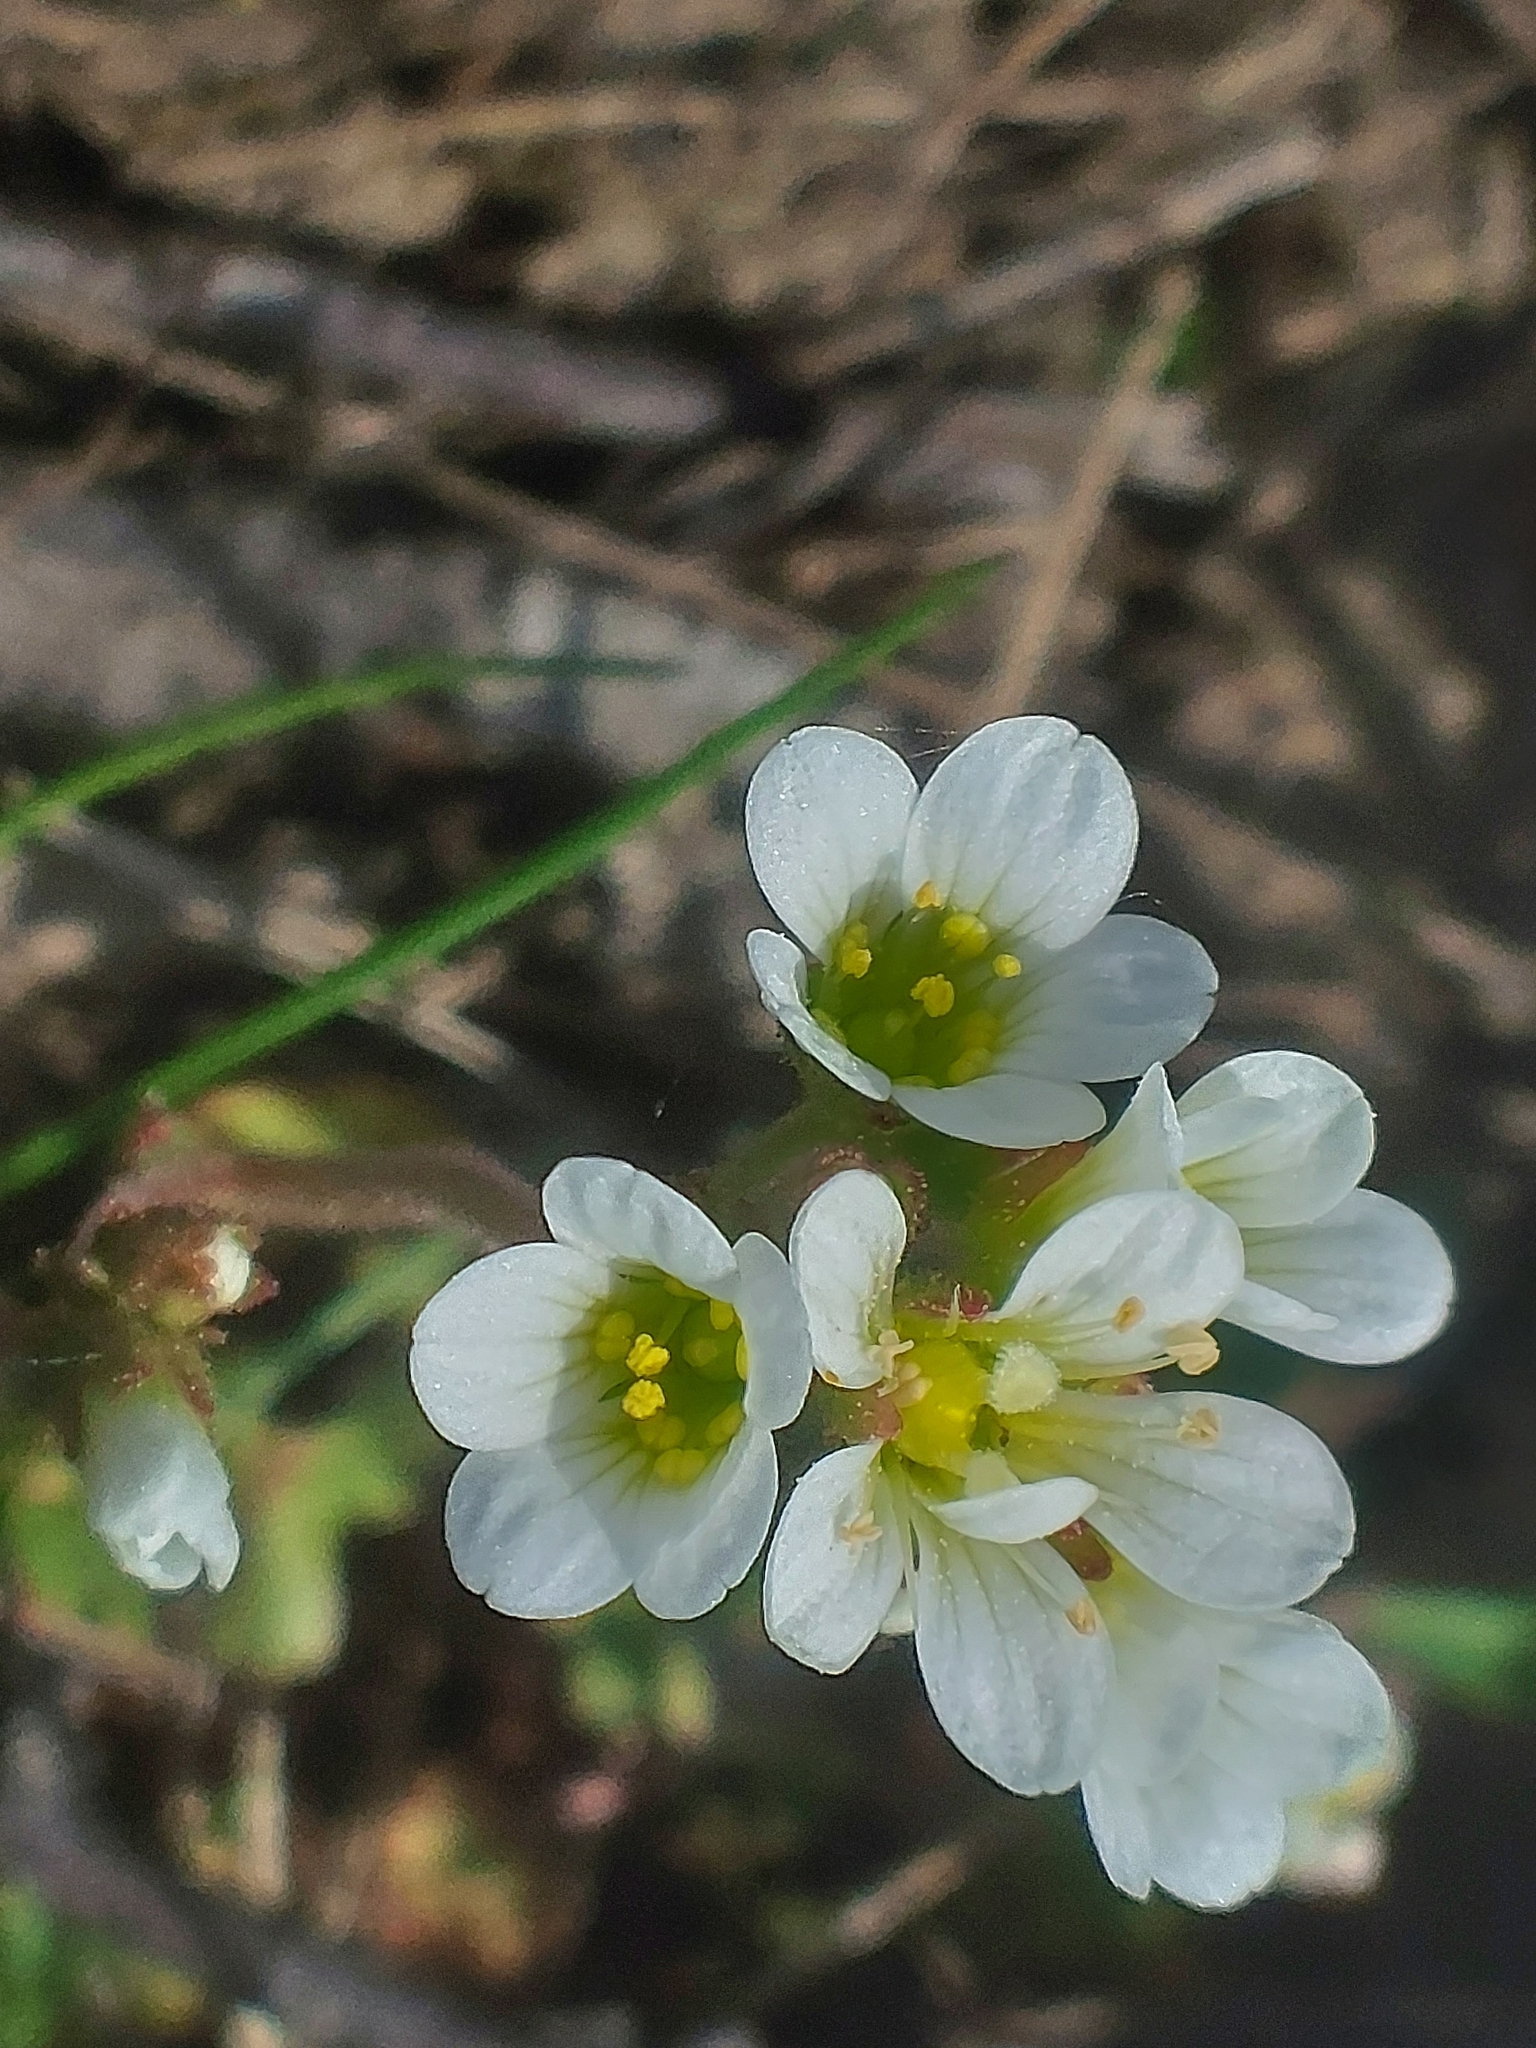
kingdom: Plantae
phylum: Tracheophyta
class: Magnoliopsida
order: Saxifragales
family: Saxifragaceae
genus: Saxifraga
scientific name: Saxifraga granulata
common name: Meadow saxifrage
